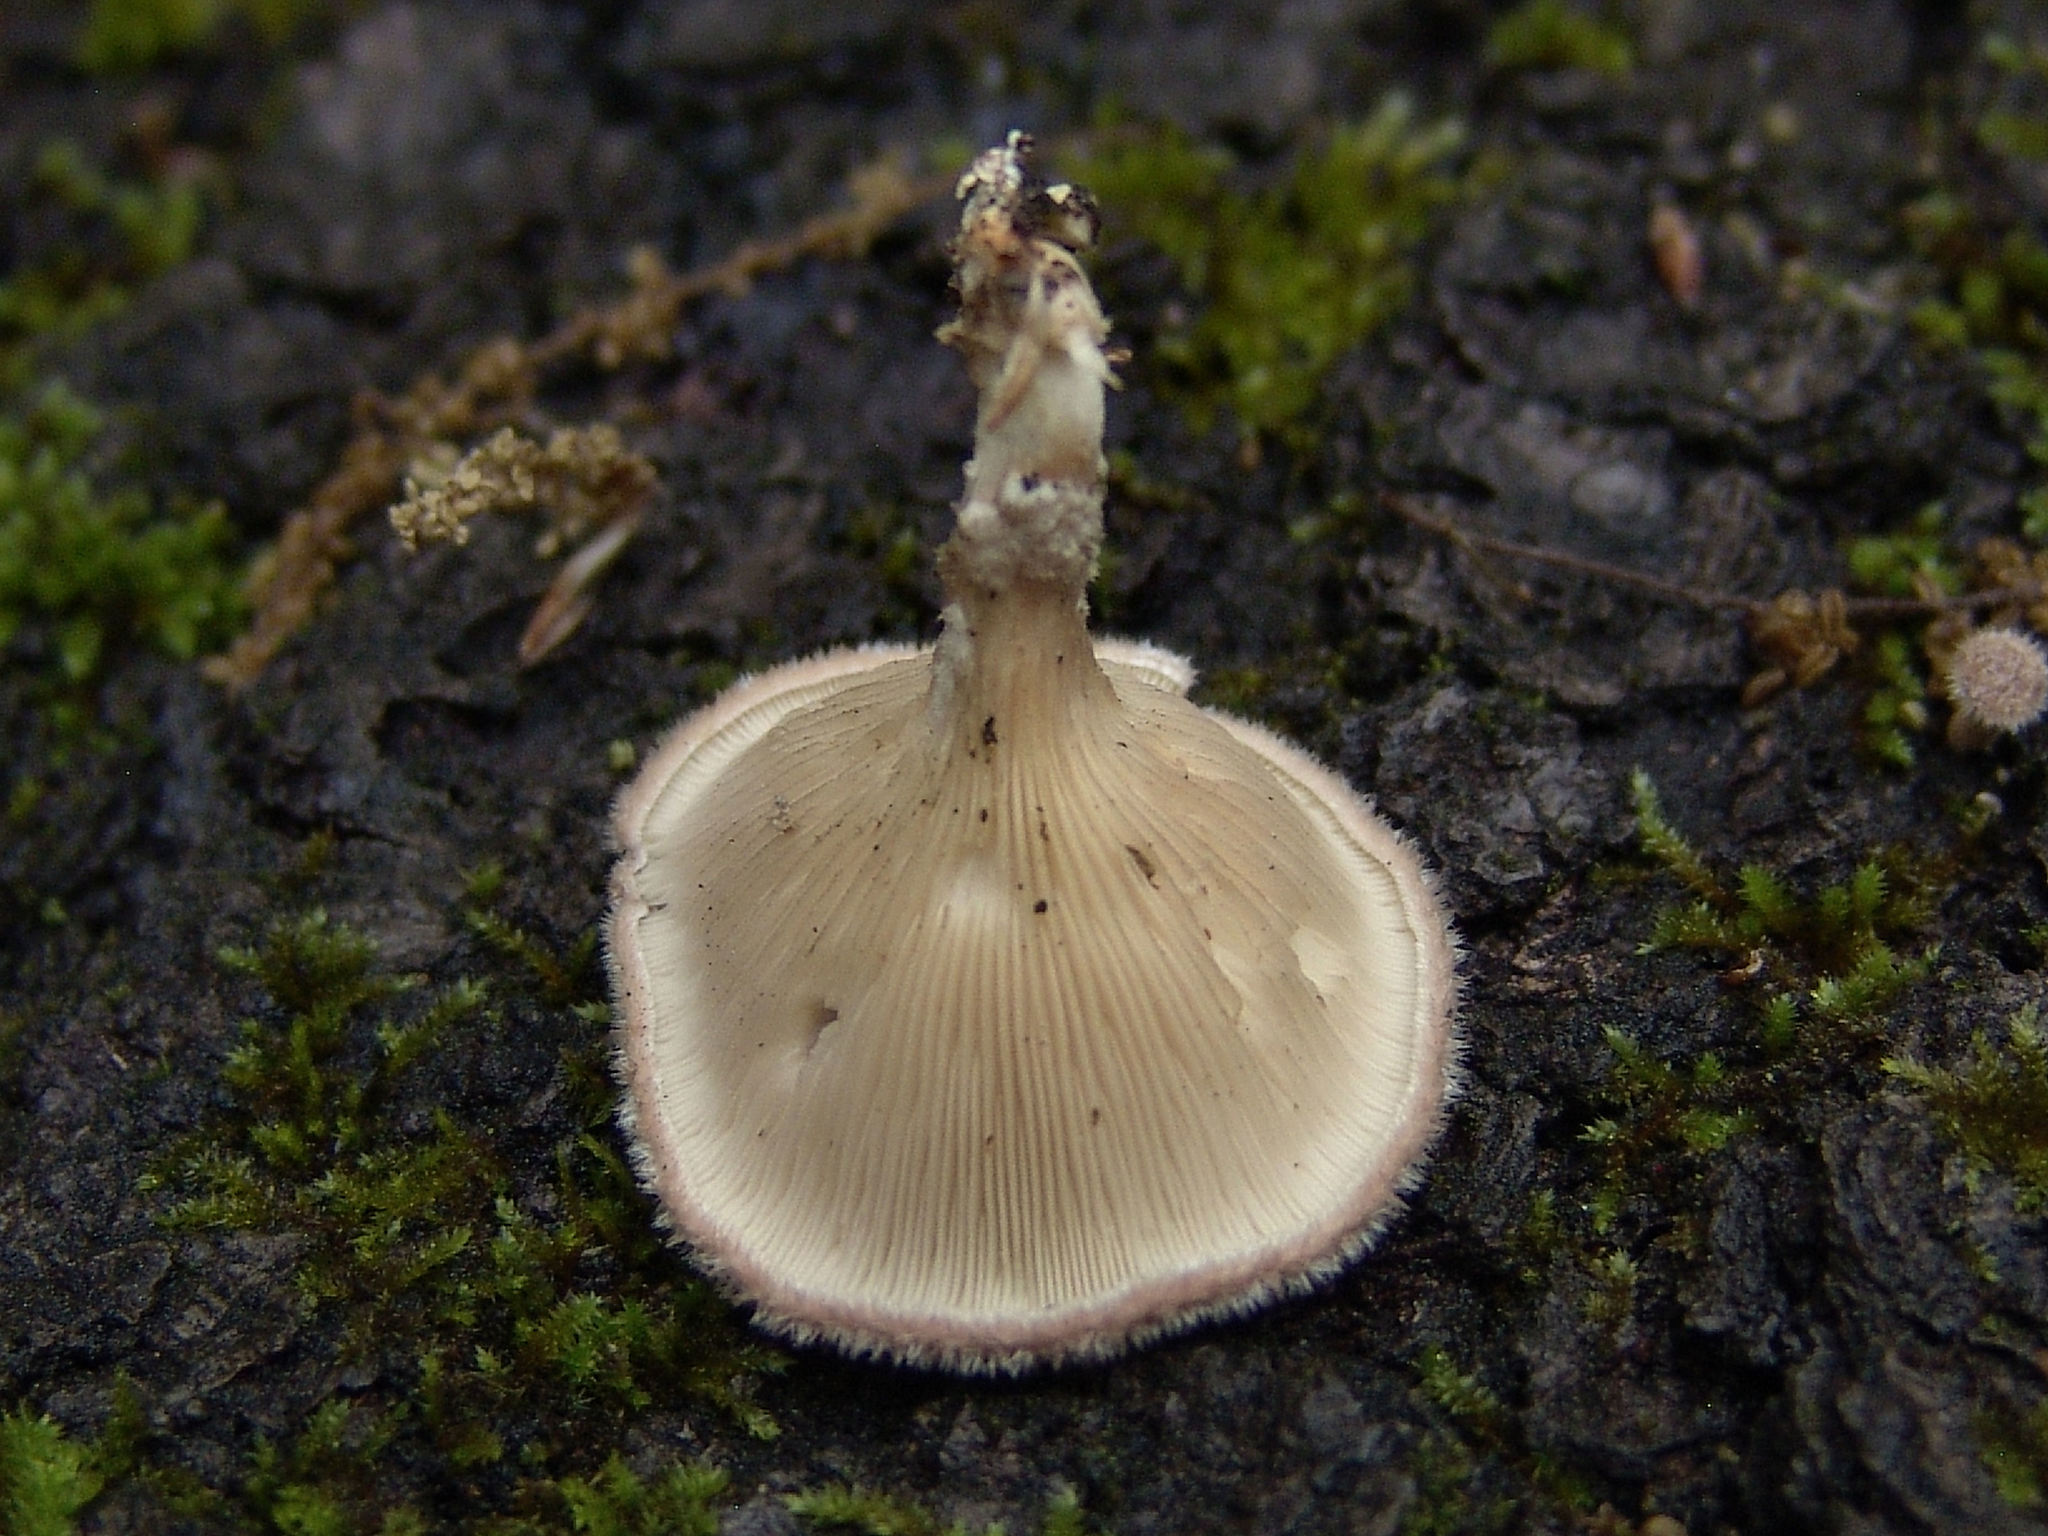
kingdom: Fungi
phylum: Basidiomycota
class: Agaricomycetes
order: Polyporales
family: Panaceae
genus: Panus
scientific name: Panus neostrigosus
